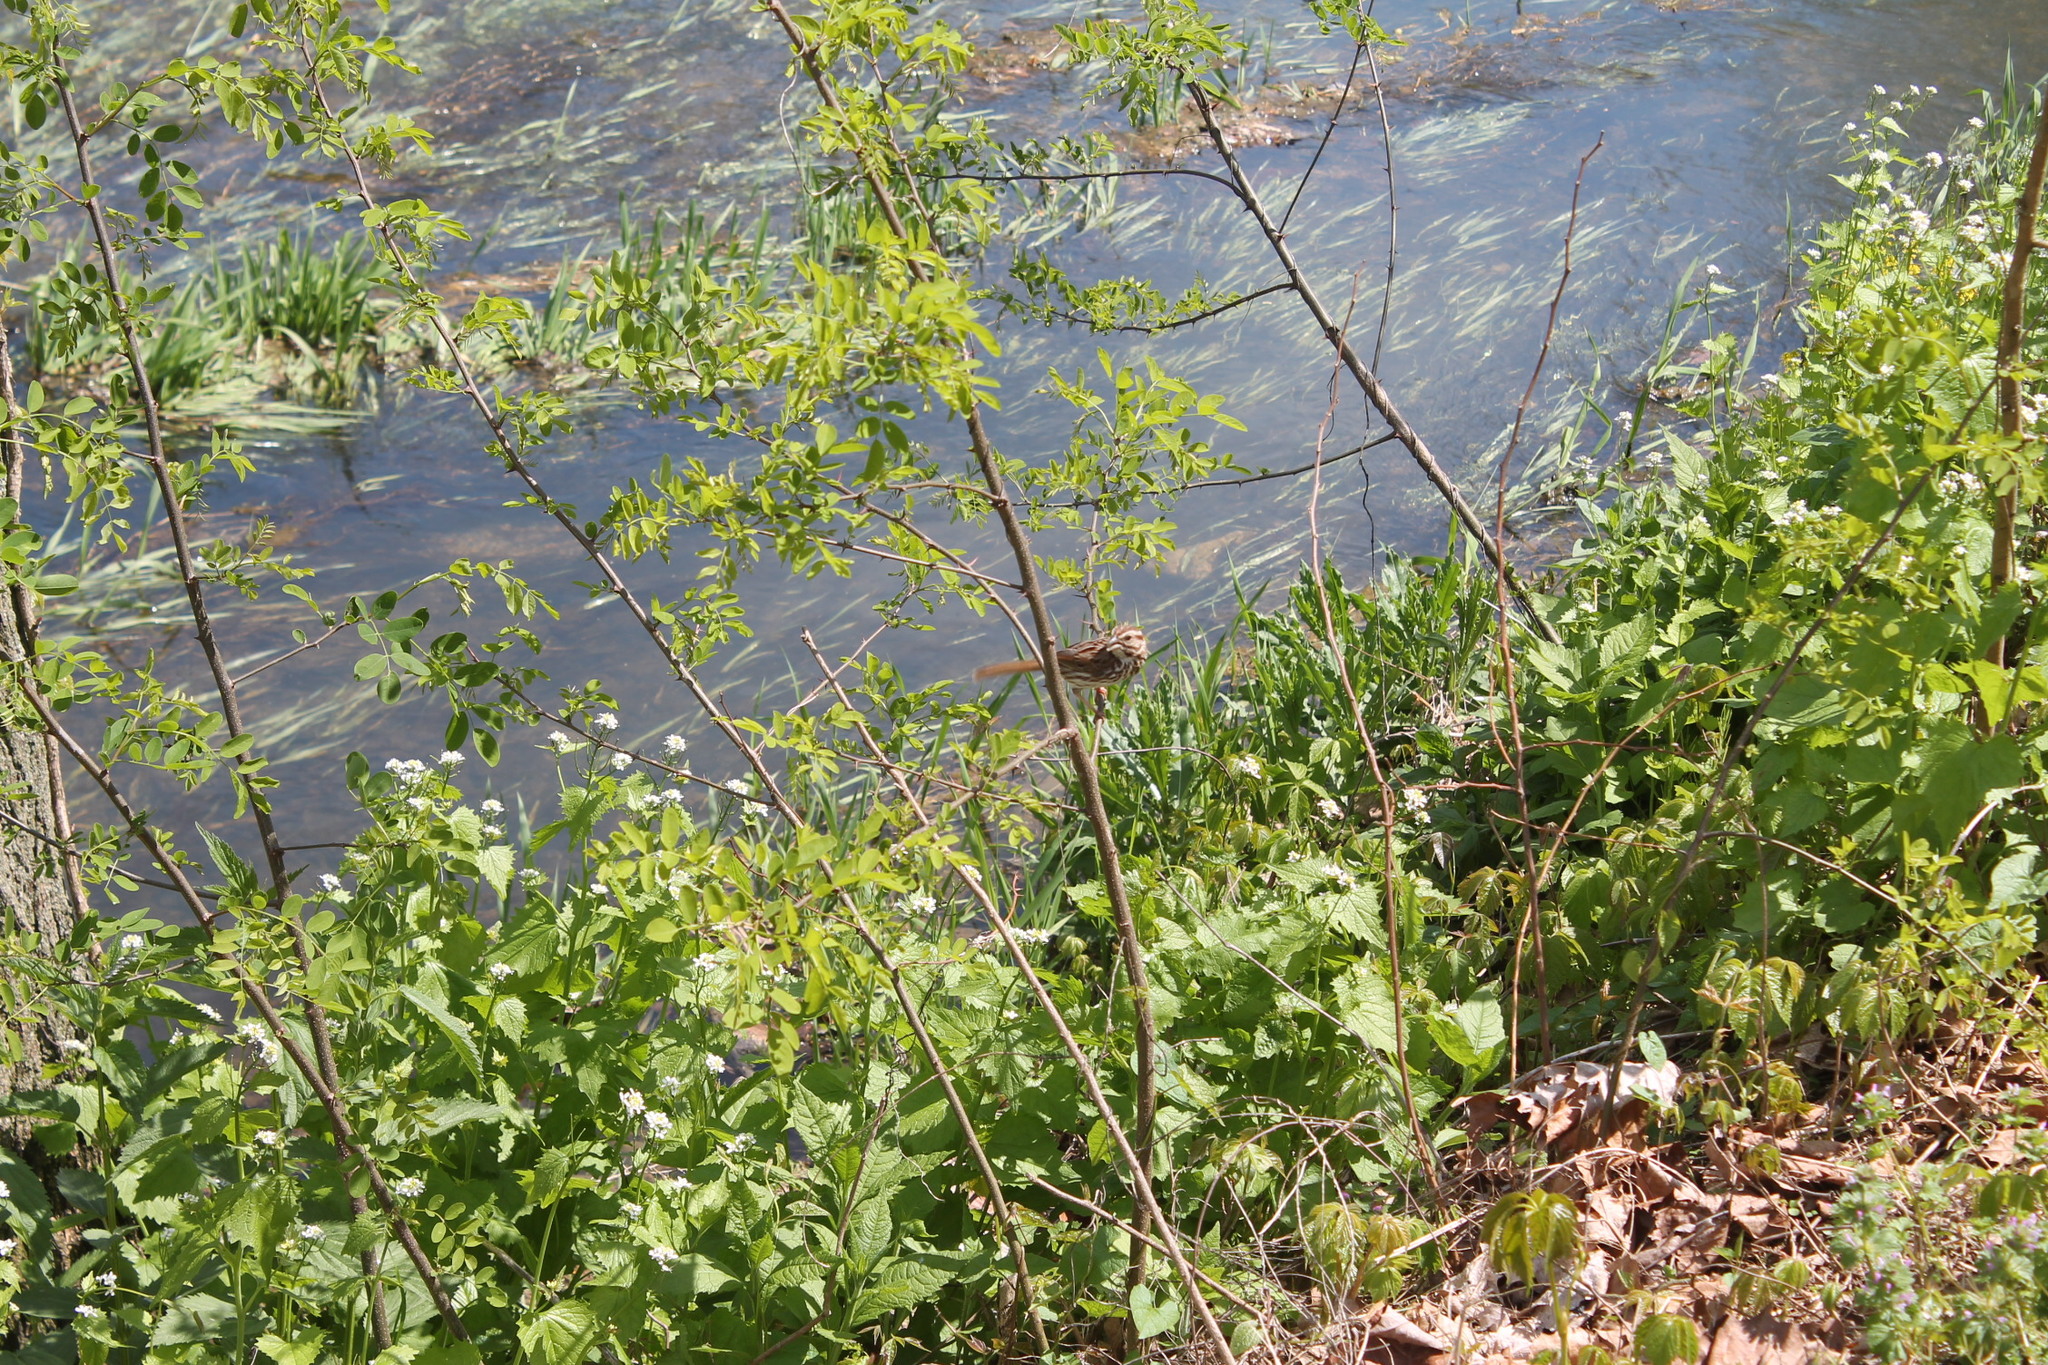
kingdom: Animalia
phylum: Chordata
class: Aves
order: Passeriformes
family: Passerellidae
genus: Melospiza
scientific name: Melospiza melodia
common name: Song sparrow
